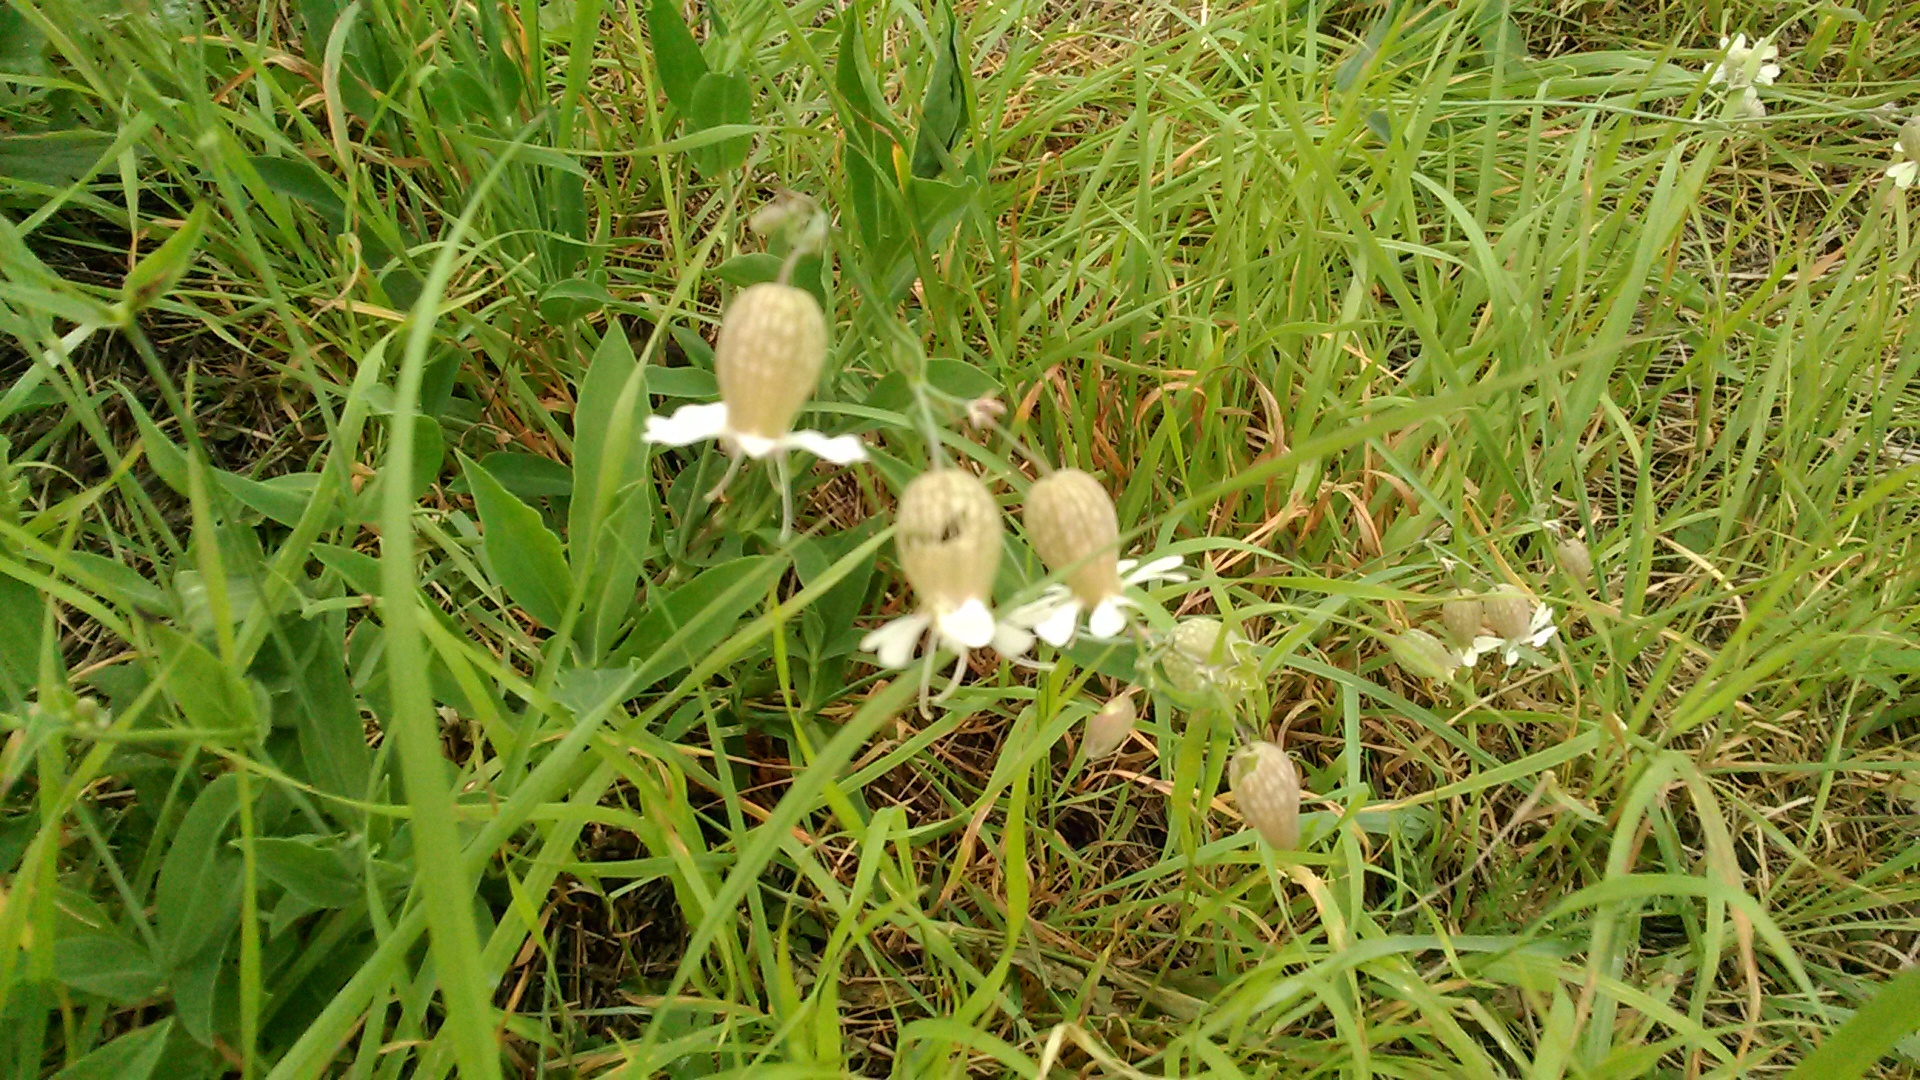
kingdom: Plantae
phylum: Tracheophyta
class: Magnoliopsida
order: Caryophyllales
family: Caryophyllaceae
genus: Silene
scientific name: Silene vulgaris
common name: Bladder campion
